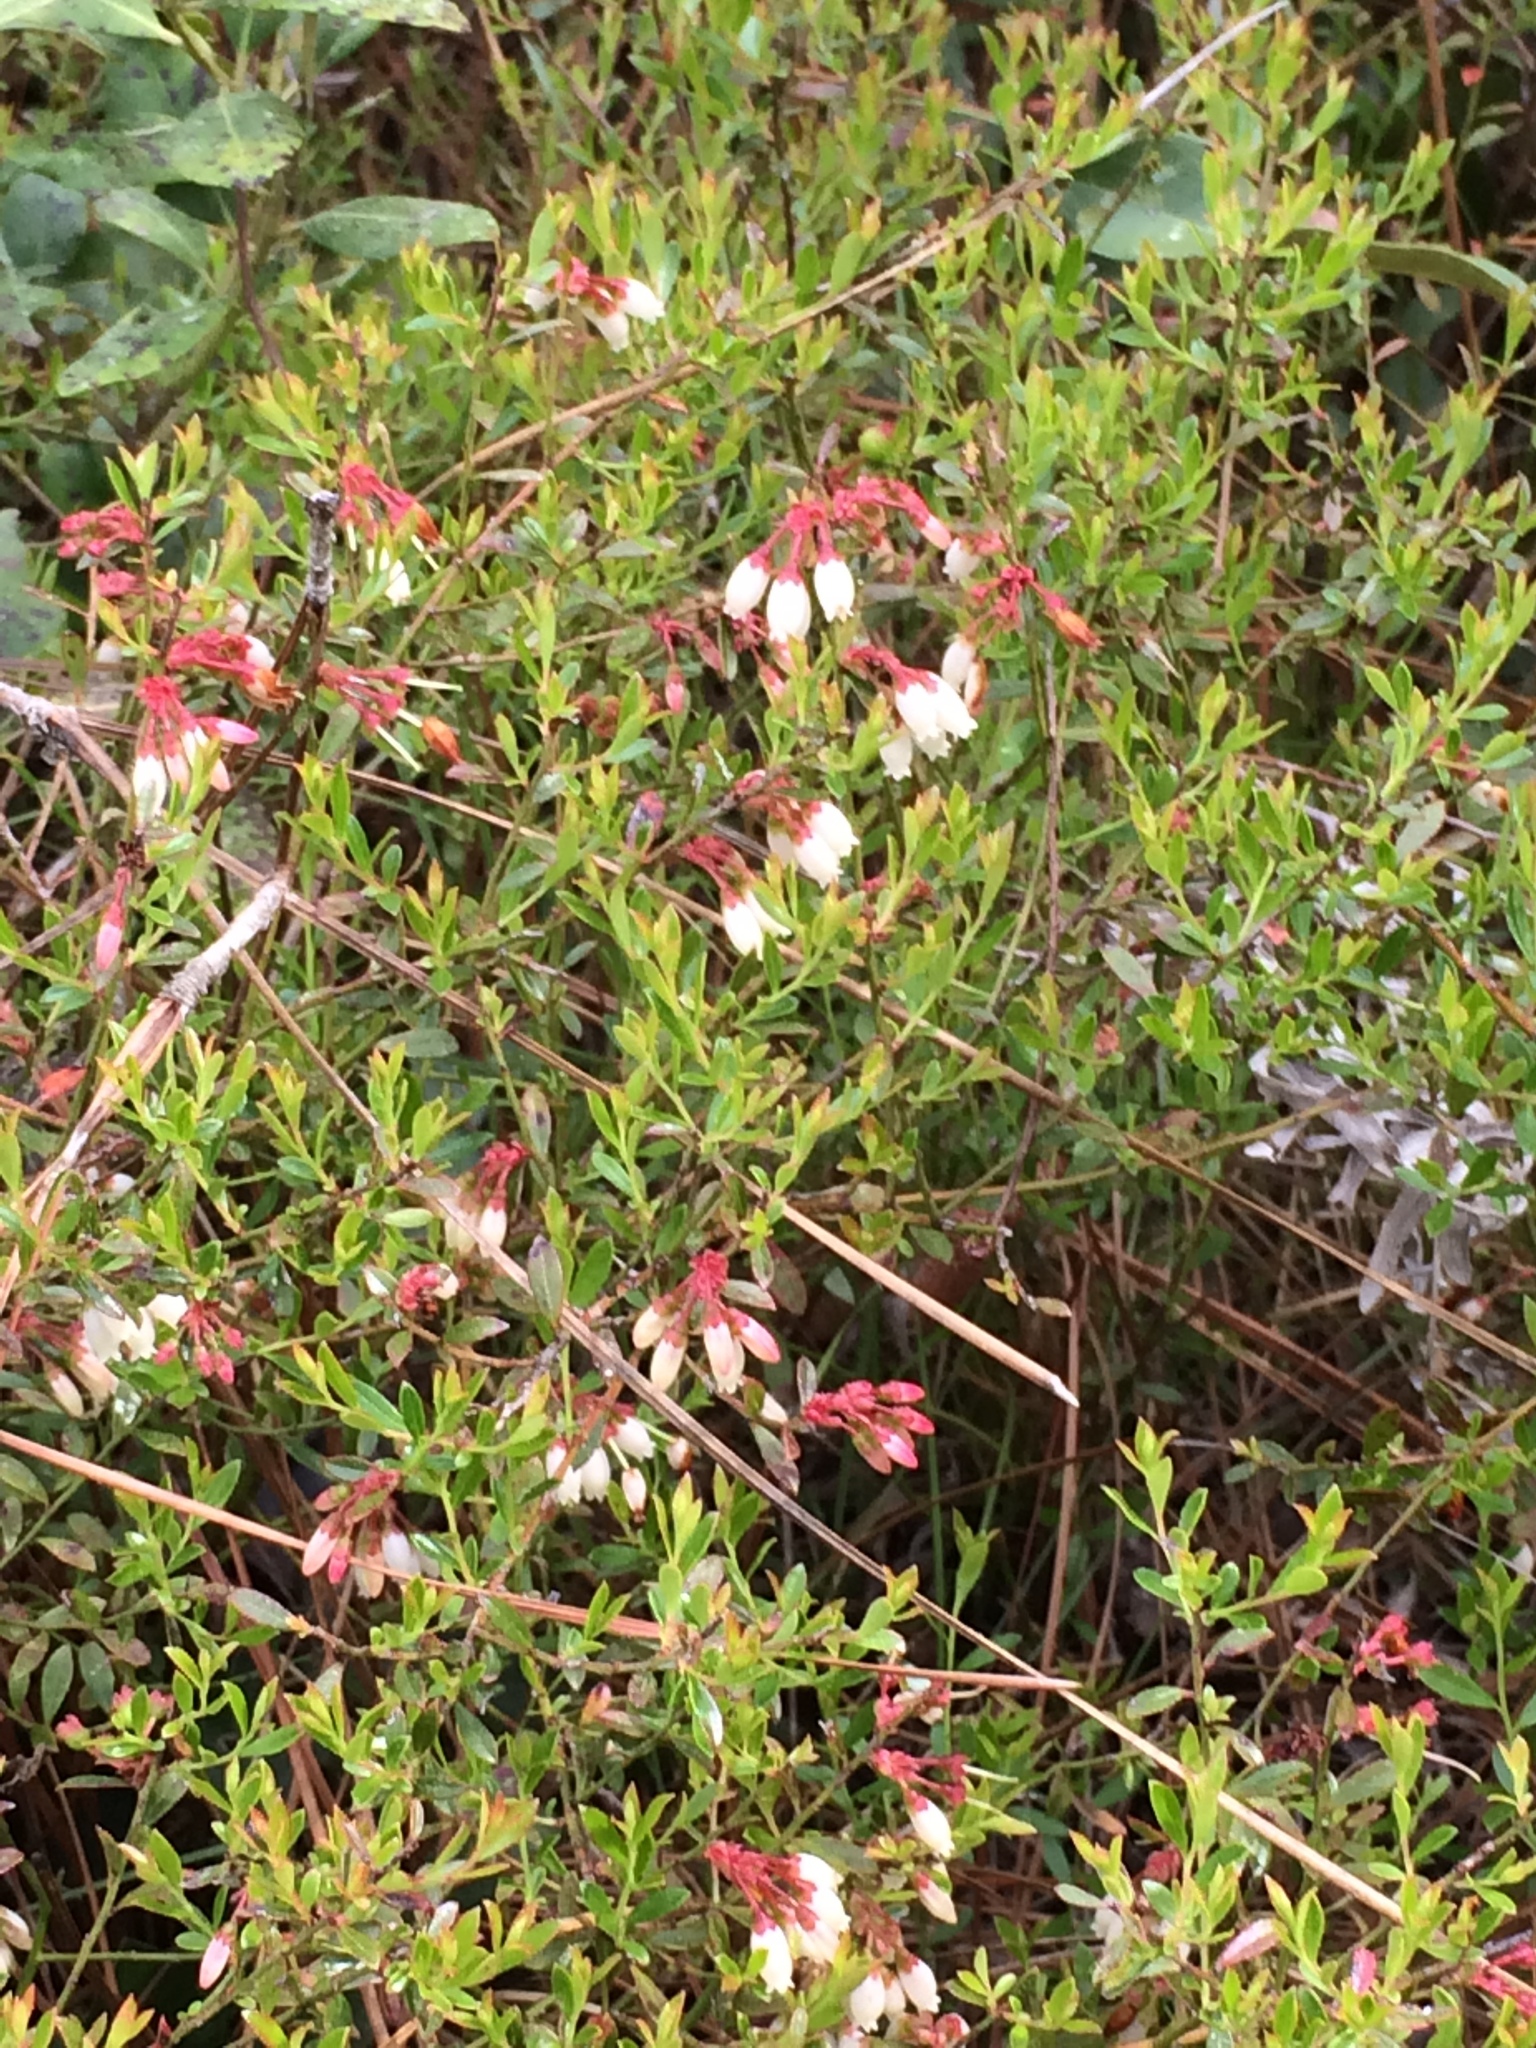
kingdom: Plantae
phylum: Tracheophyta
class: Magnoliopsida
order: Ericales
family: Ericaceae
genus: Vaccinium
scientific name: Vaccinium myrsinites
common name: Evergreen blueberry
